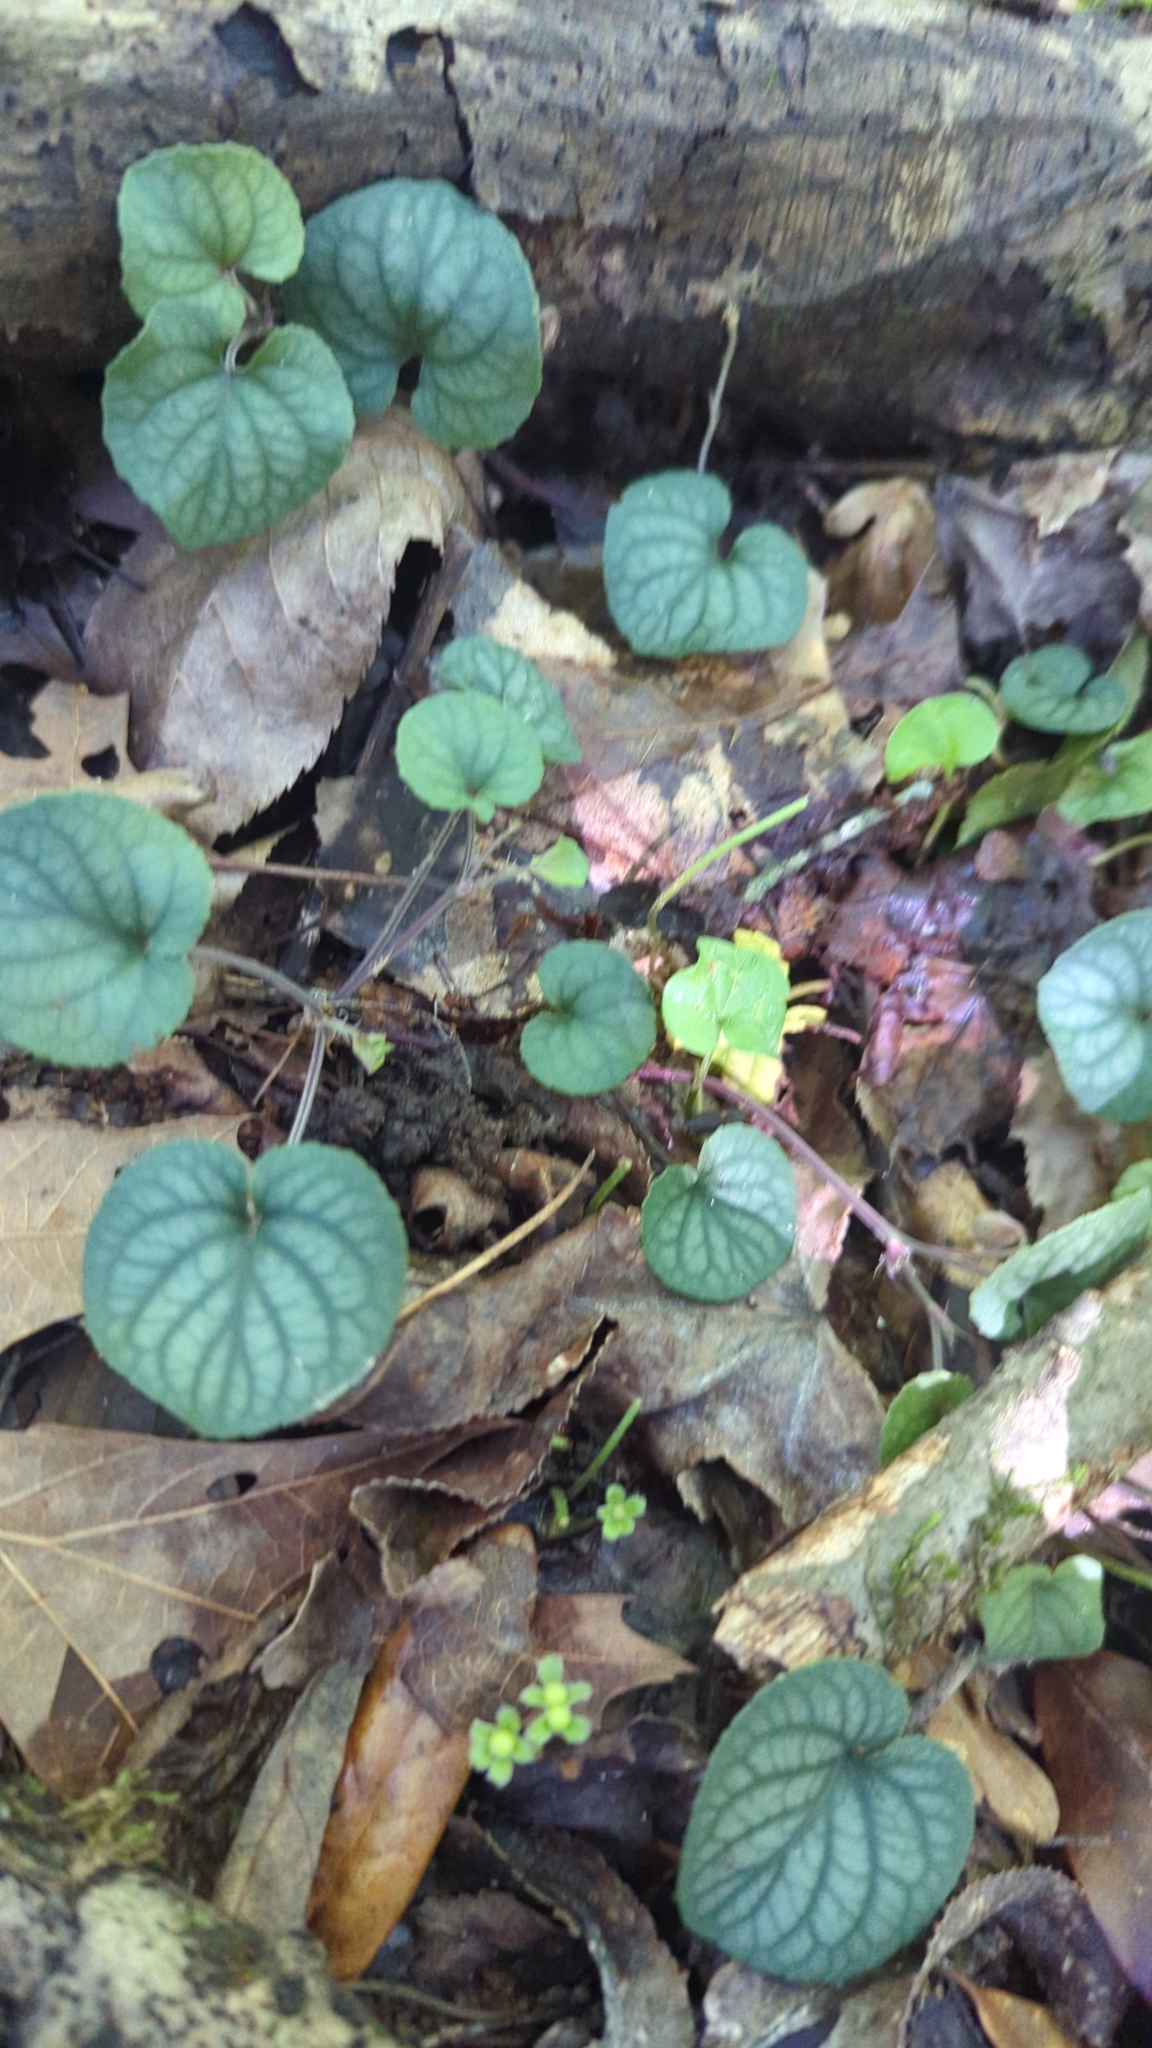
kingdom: Plantae
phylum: Tracheophyta
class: Magnoliopsida
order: Malpighiales
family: Violaceae
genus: Viola
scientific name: Viola walteri
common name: Prostrate southern violet
